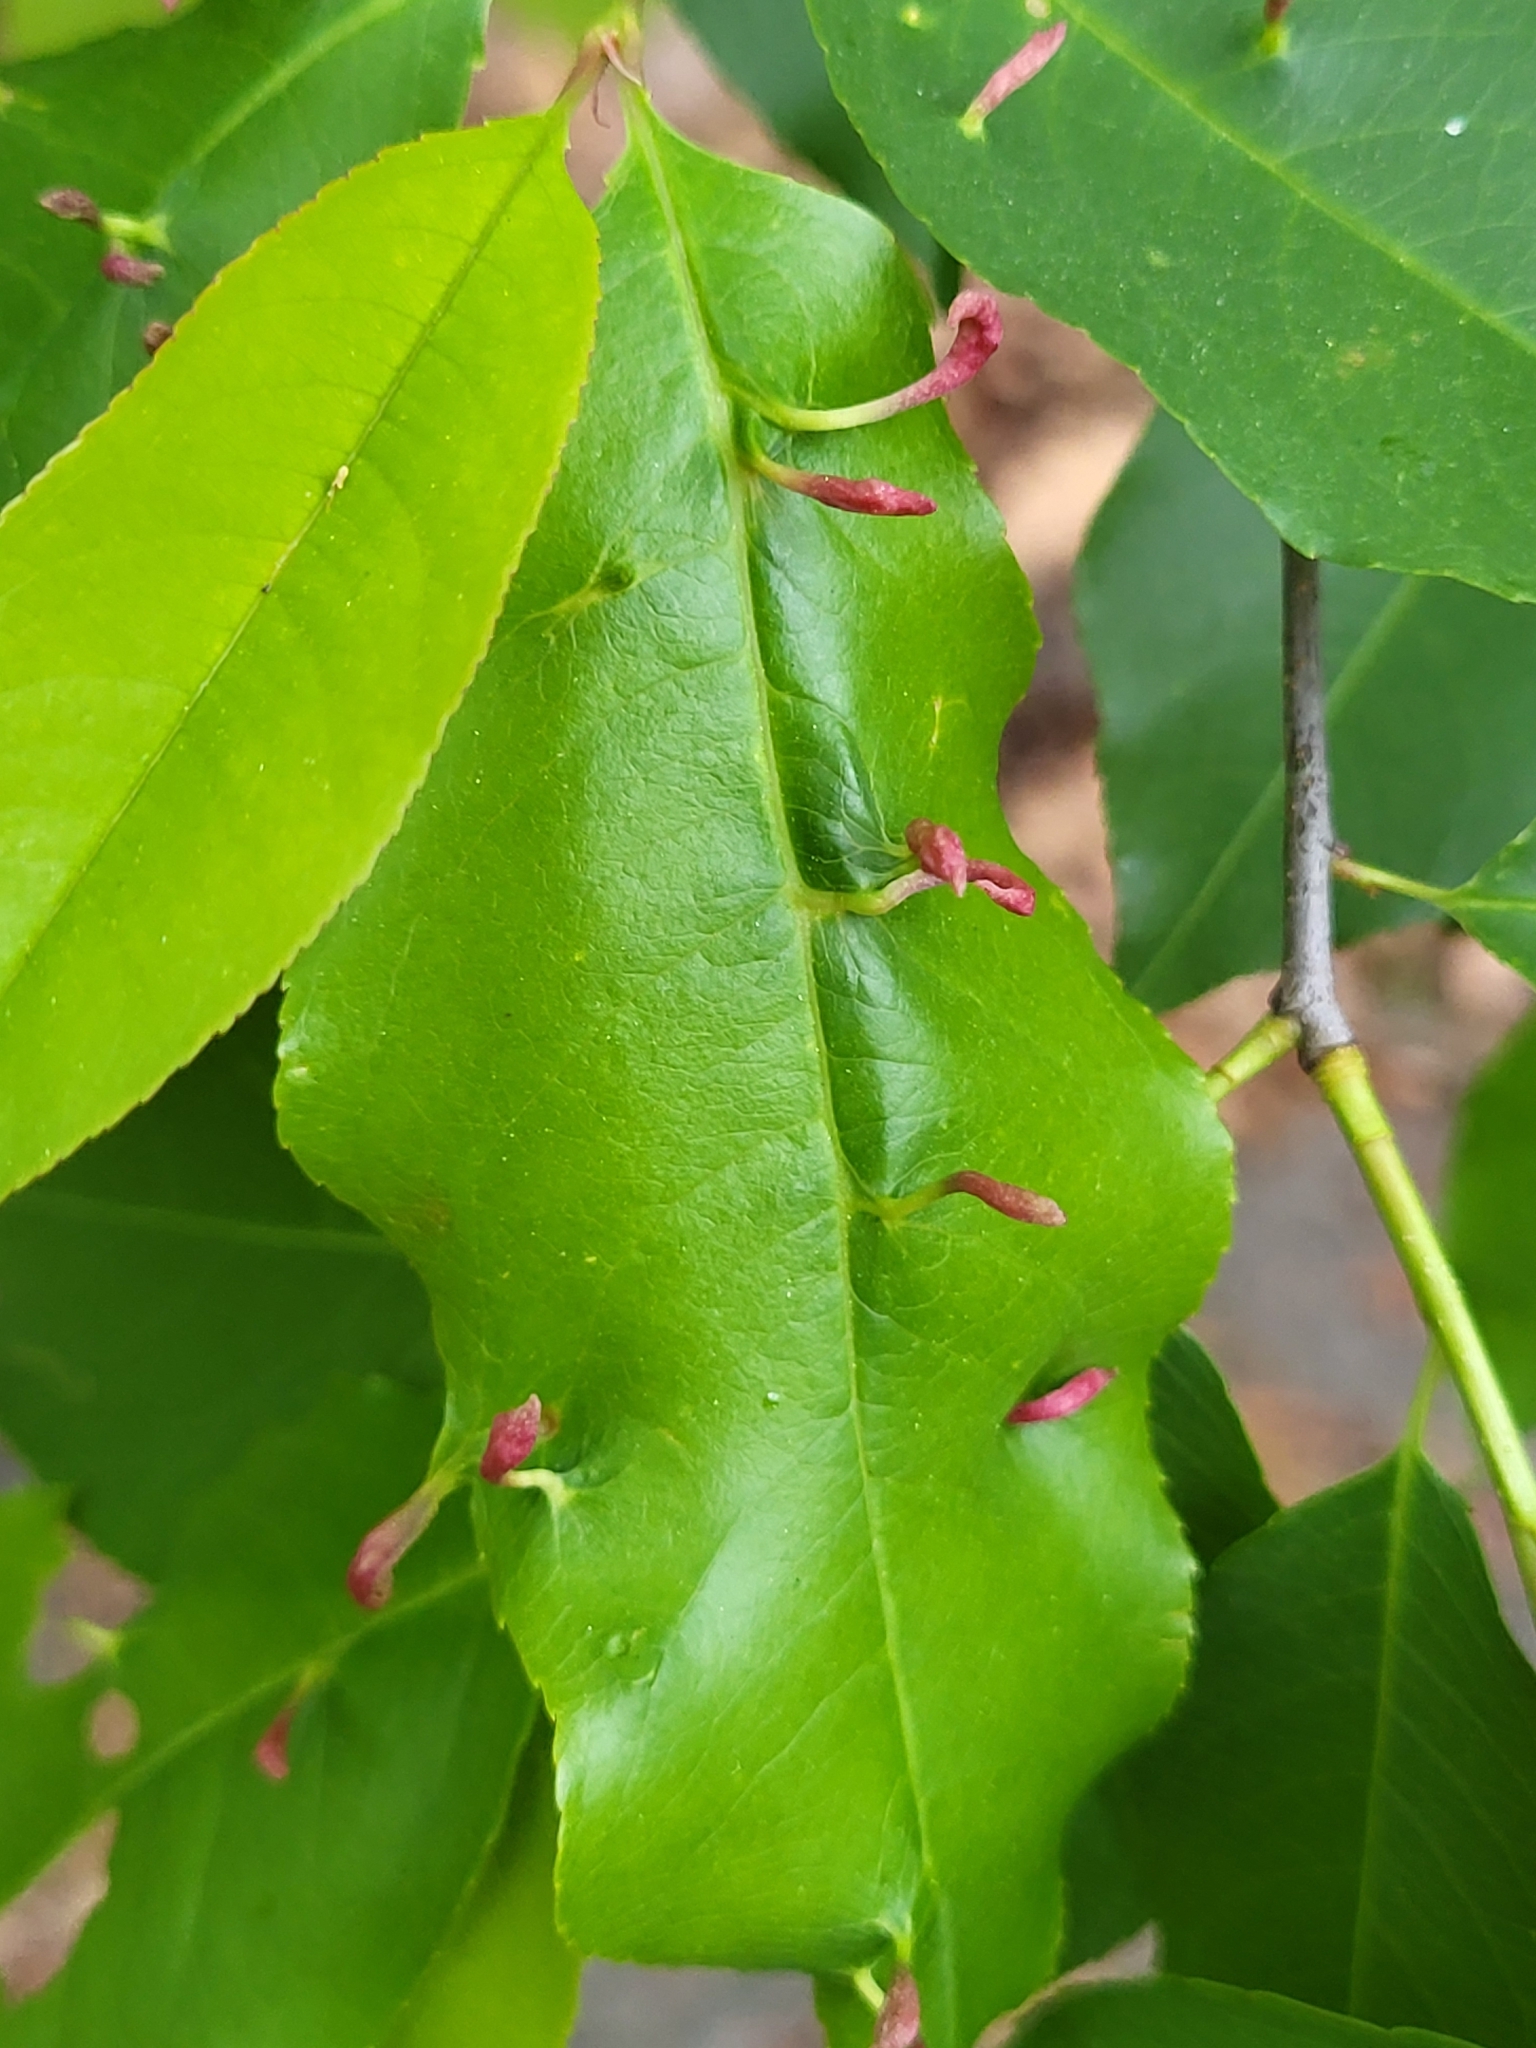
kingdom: Animalia
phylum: Arthropoda
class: Arachnida
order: Trombidiformes
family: Eriophyidae
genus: Eriophyes
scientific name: Eriophyes
